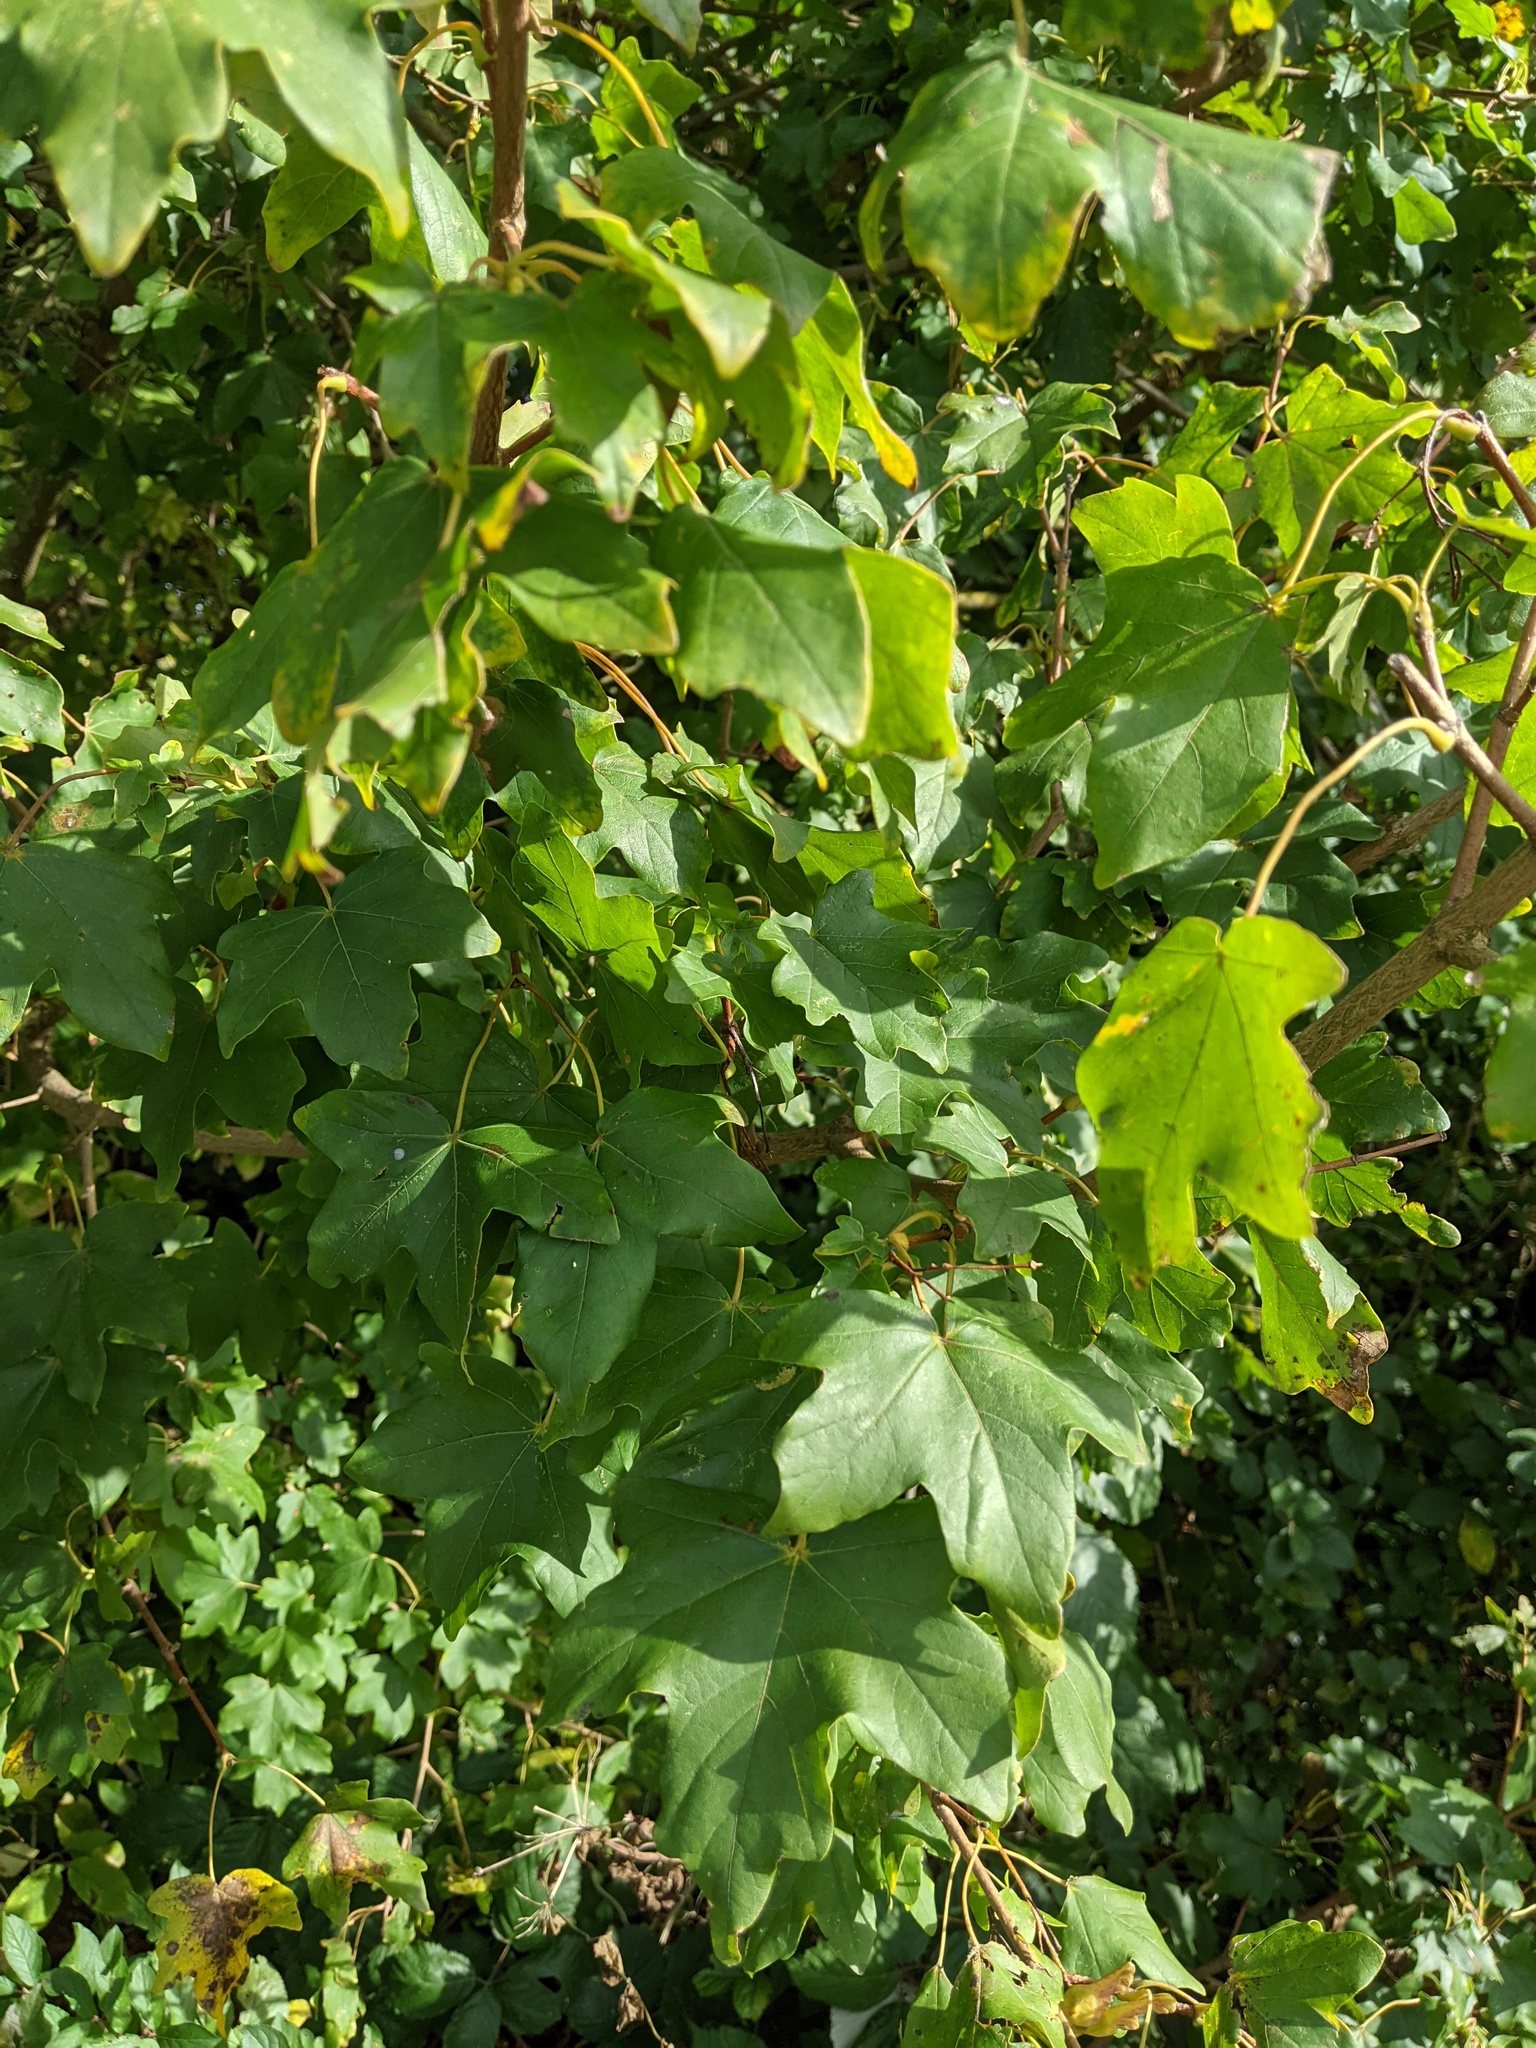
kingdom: Plantae
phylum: Tracheophyta
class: Magnoliopsida
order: Sapindales
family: Sapindaceae
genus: Acer
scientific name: Acer campestre
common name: Field maple
